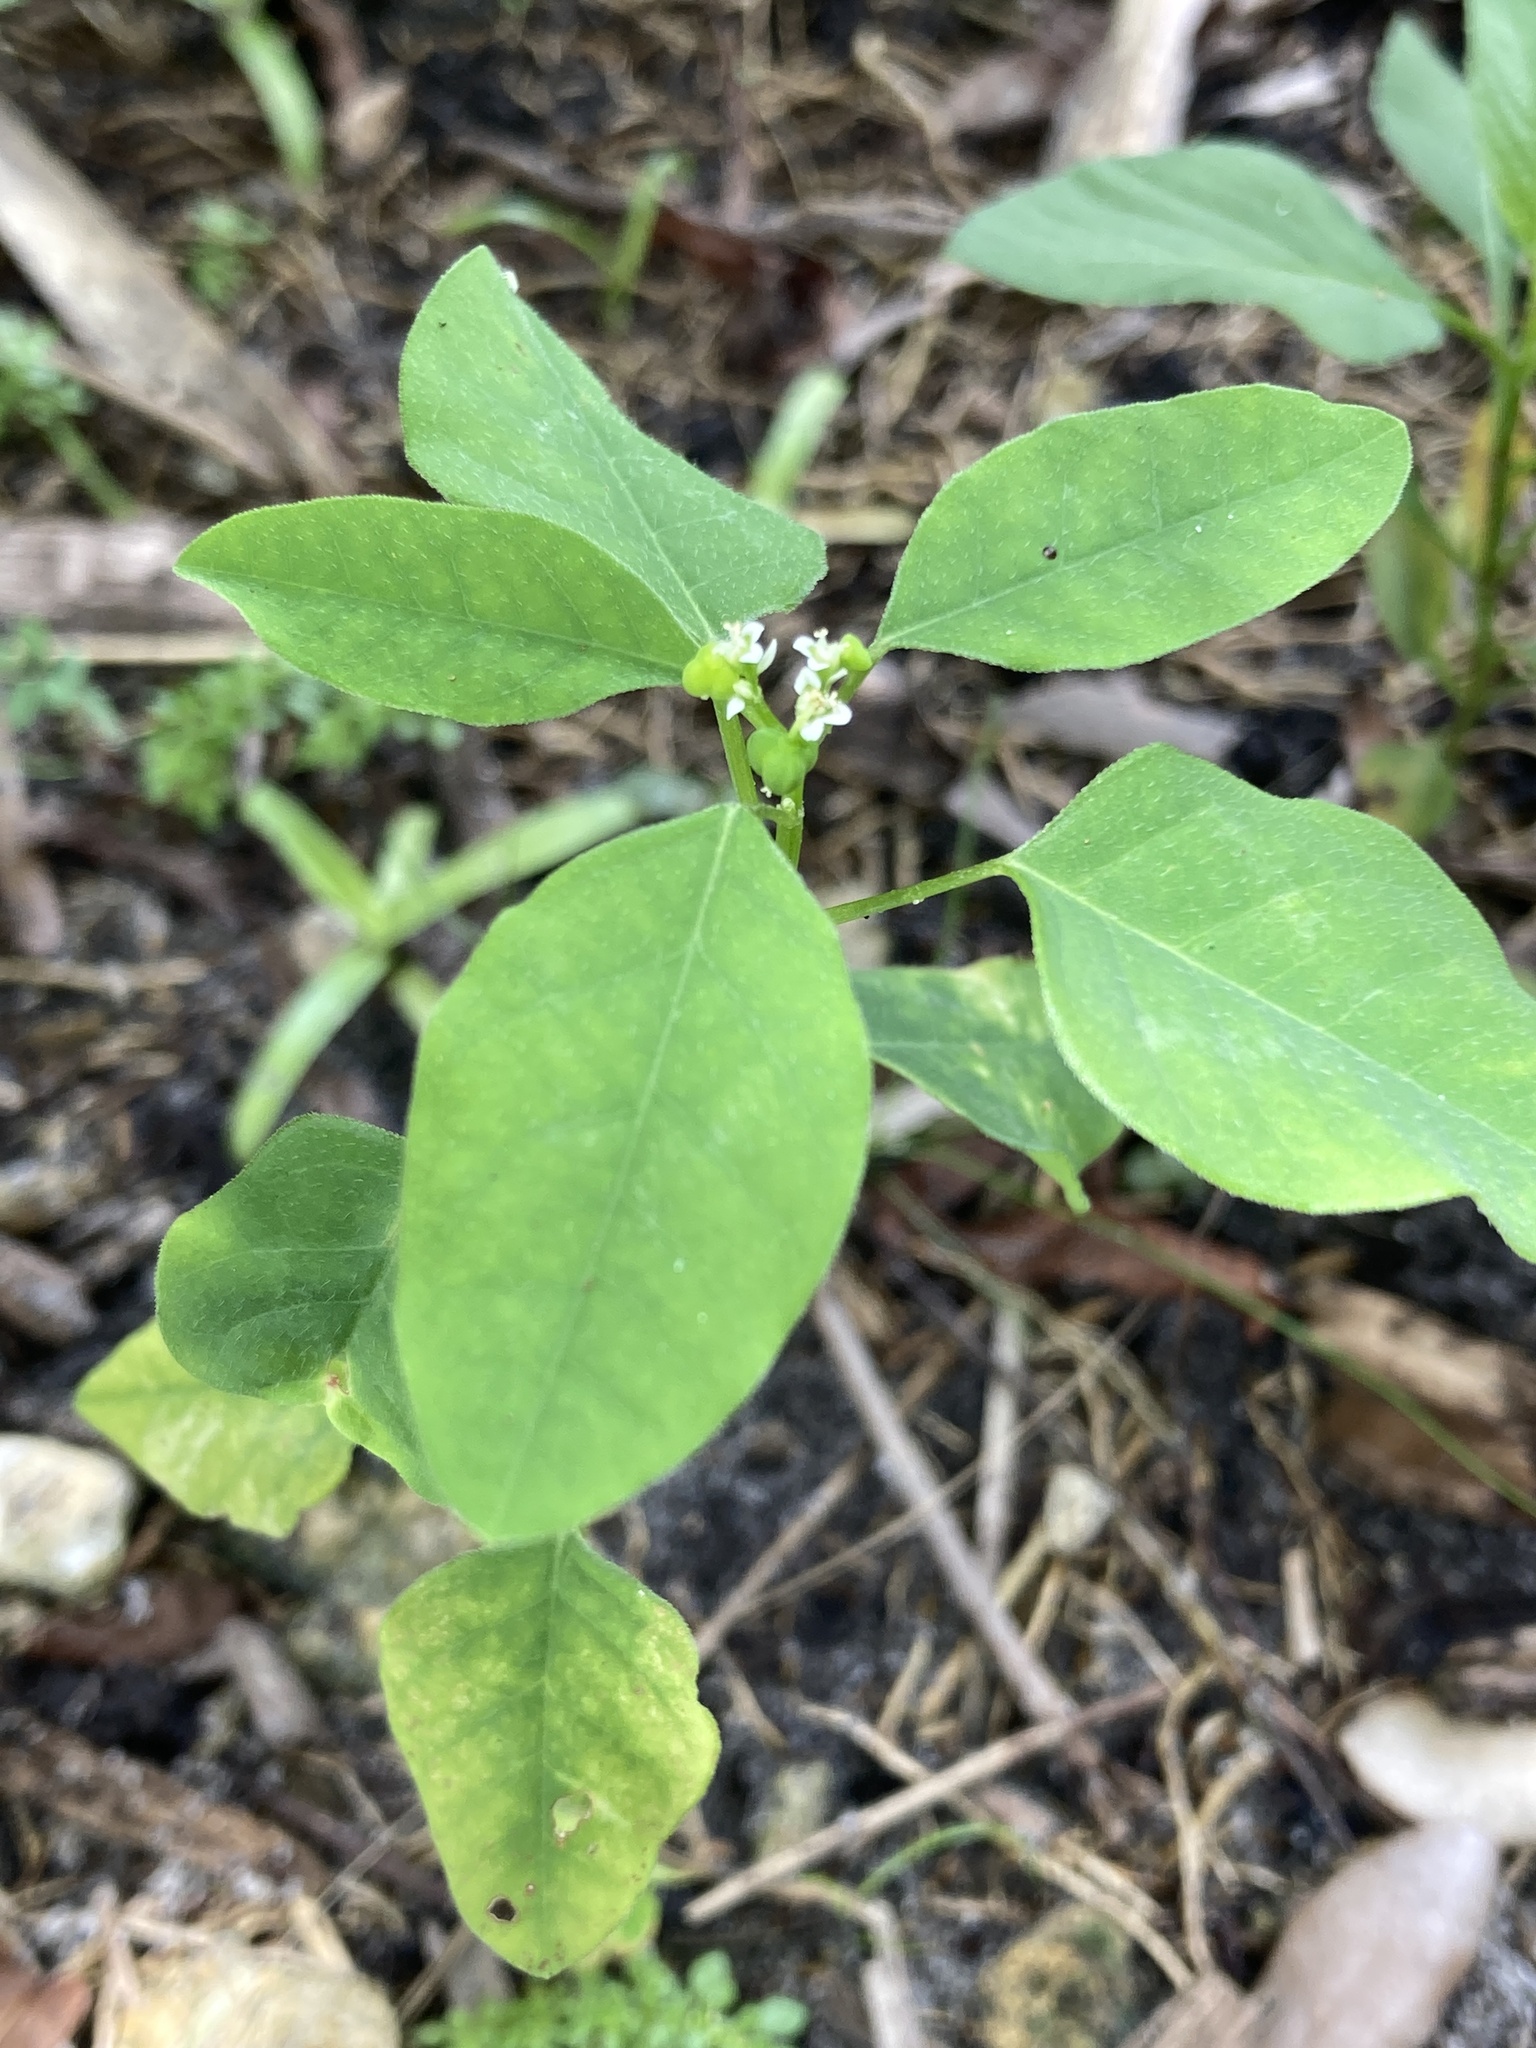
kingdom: Plantae
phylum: Tracheophyta
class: Magnoliopsida
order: Malpighiales
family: Euphorbiaceae
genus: Euphorbia
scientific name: Euphorbia graminea
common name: Grassleaf spurge
